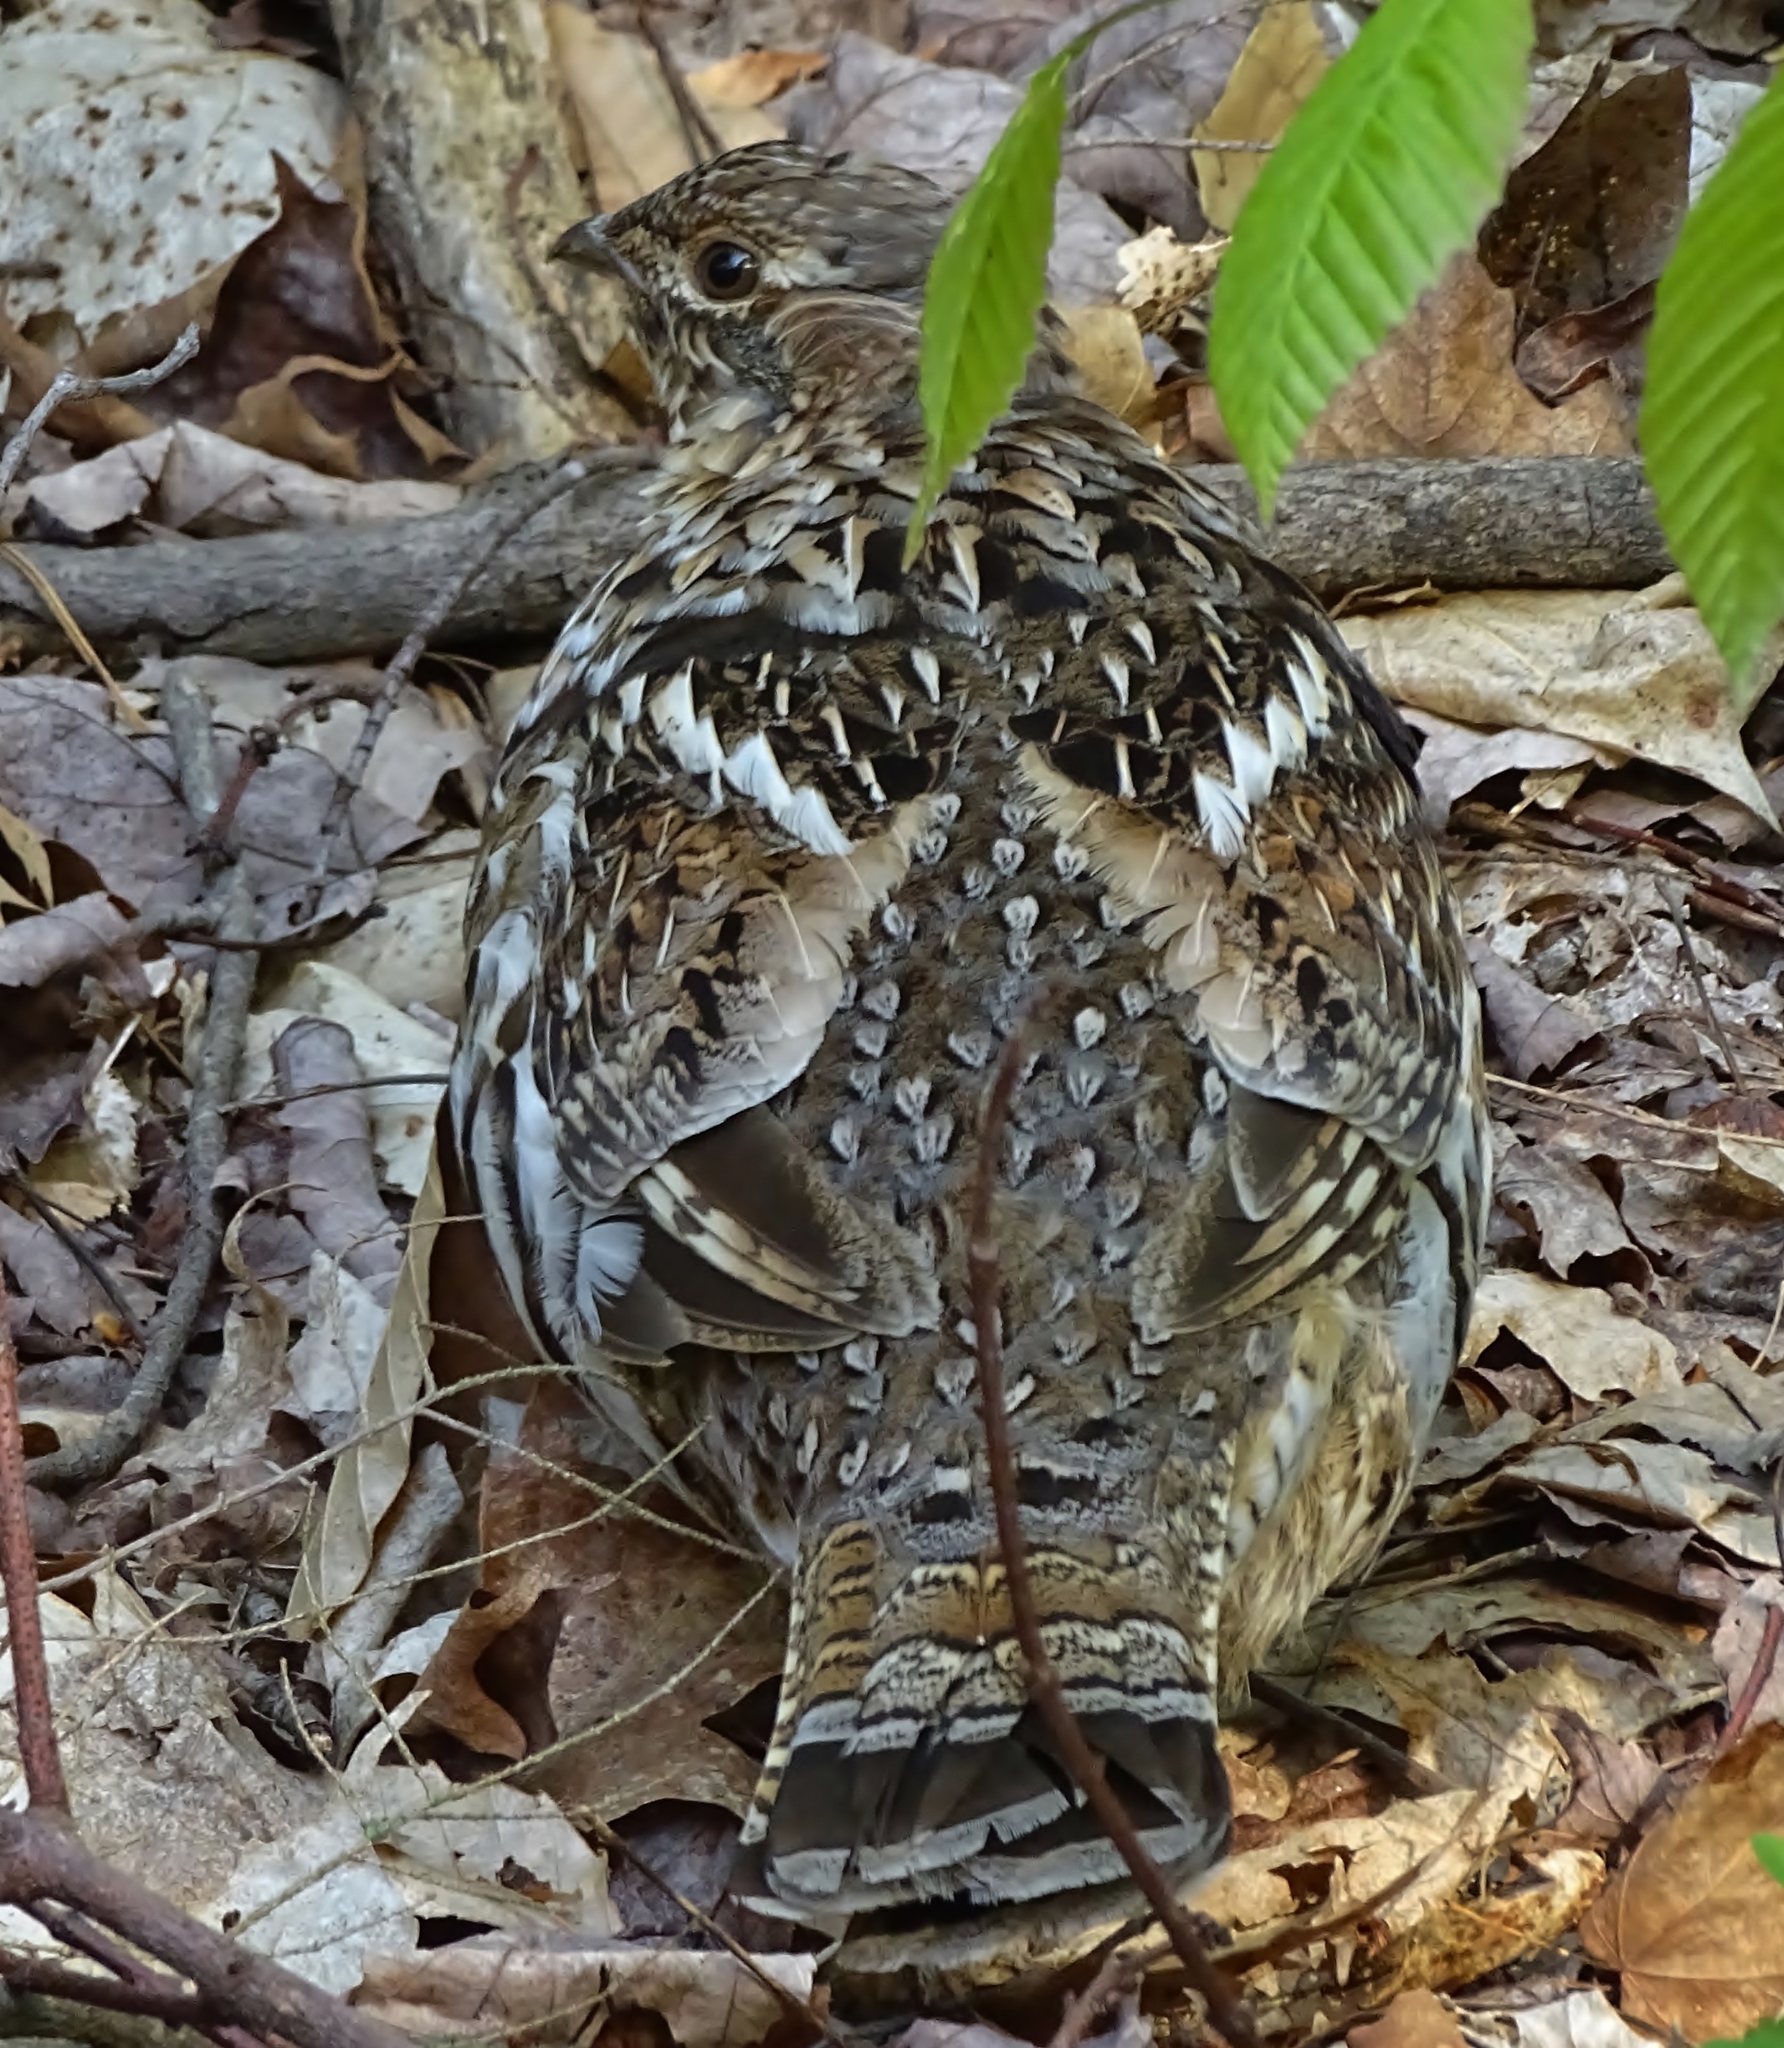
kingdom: Animalia
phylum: Chordata
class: Aves
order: Galliformes
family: Phasianidae
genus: Bonasa
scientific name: Bonasa umbellus
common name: Ruffed grouse
